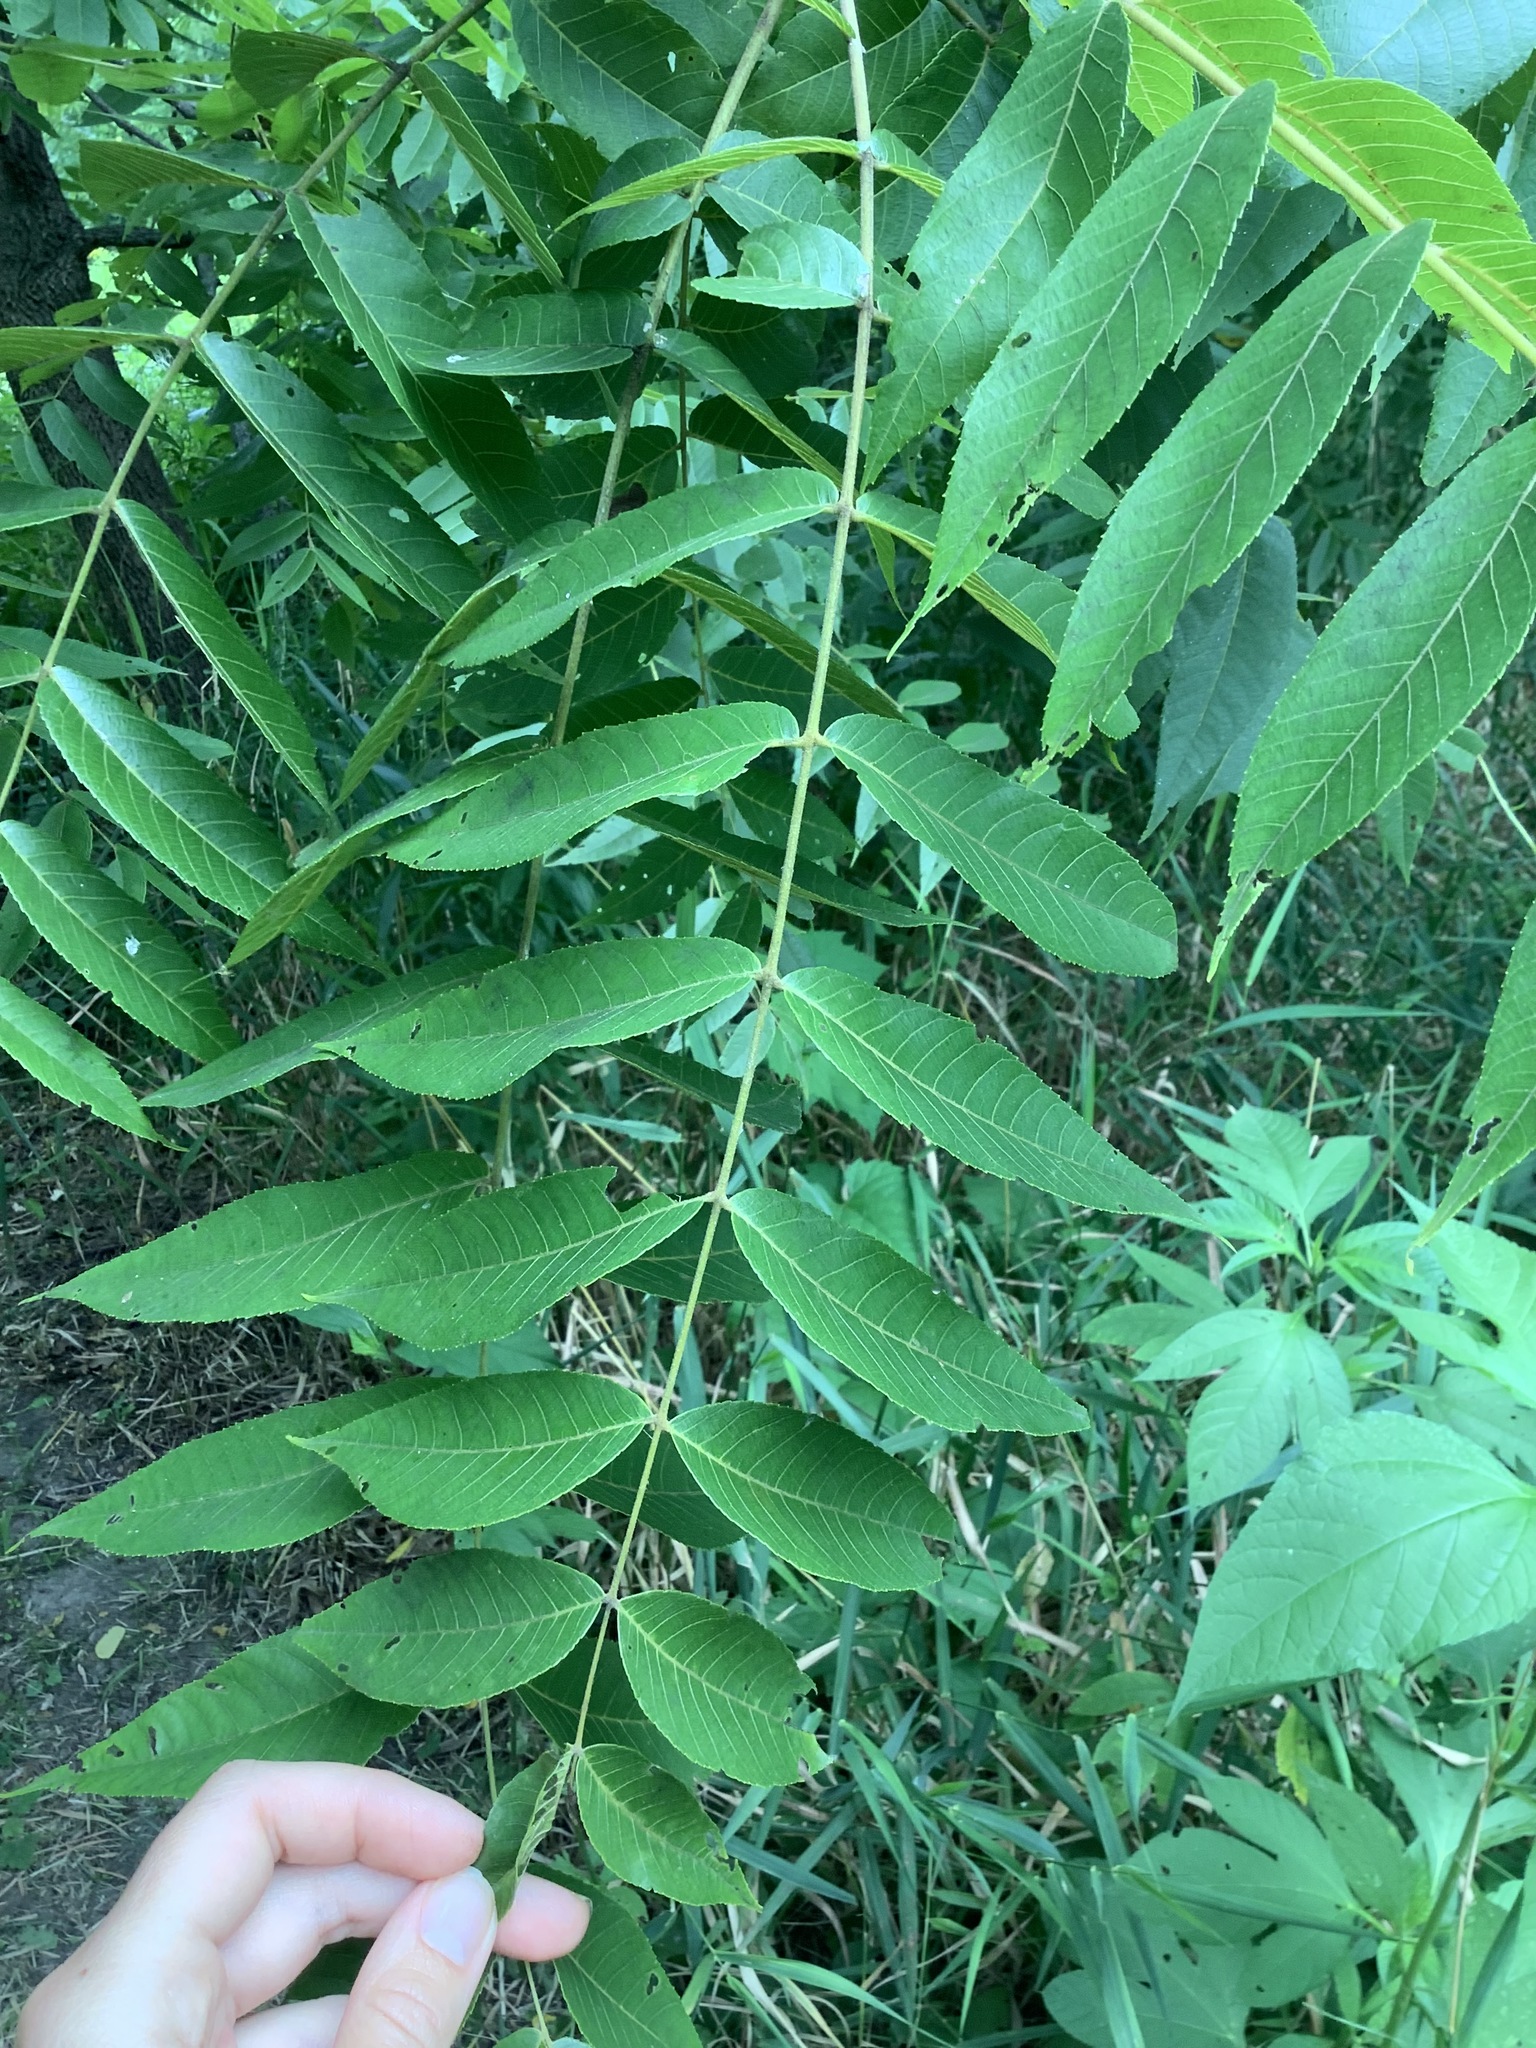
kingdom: Plantae
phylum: Tracheophyta
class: Magnoliopsida
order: Fagales
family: Juglandaceae
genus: Juglans
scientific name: Juglans nigra
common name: Black walnut
